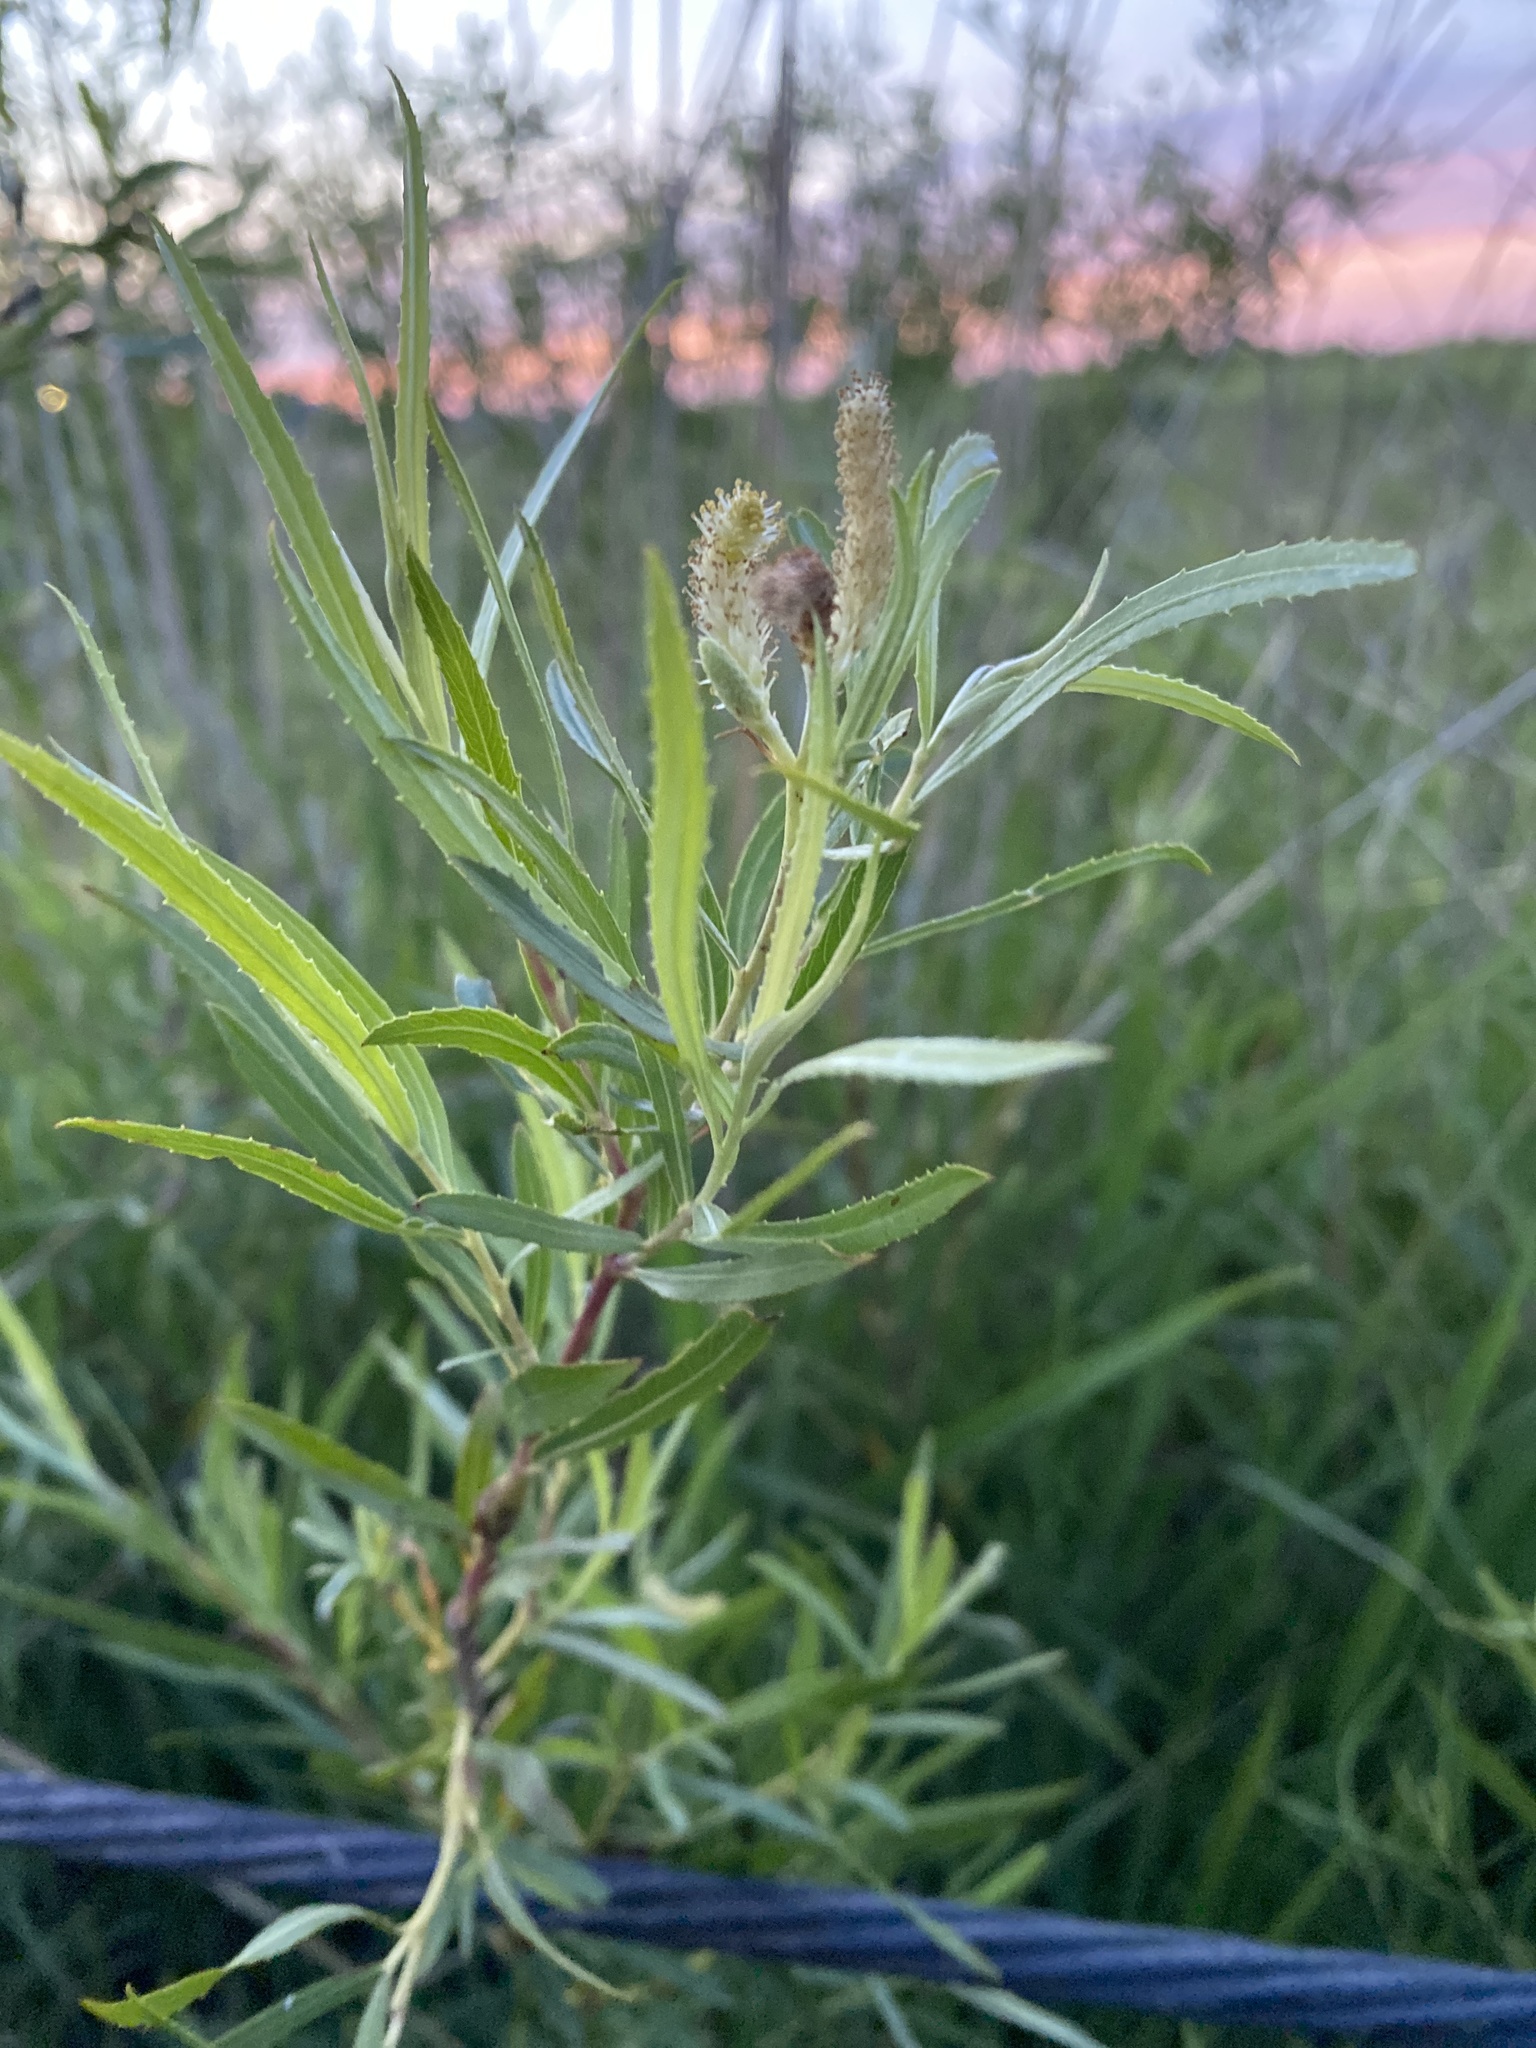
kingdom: Plantae
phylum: Tracheophyta
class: Magnoliopsida
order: Malpighiales
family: Salicaceae
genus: Salix
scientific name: Salix interior
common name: Sandbar willow
